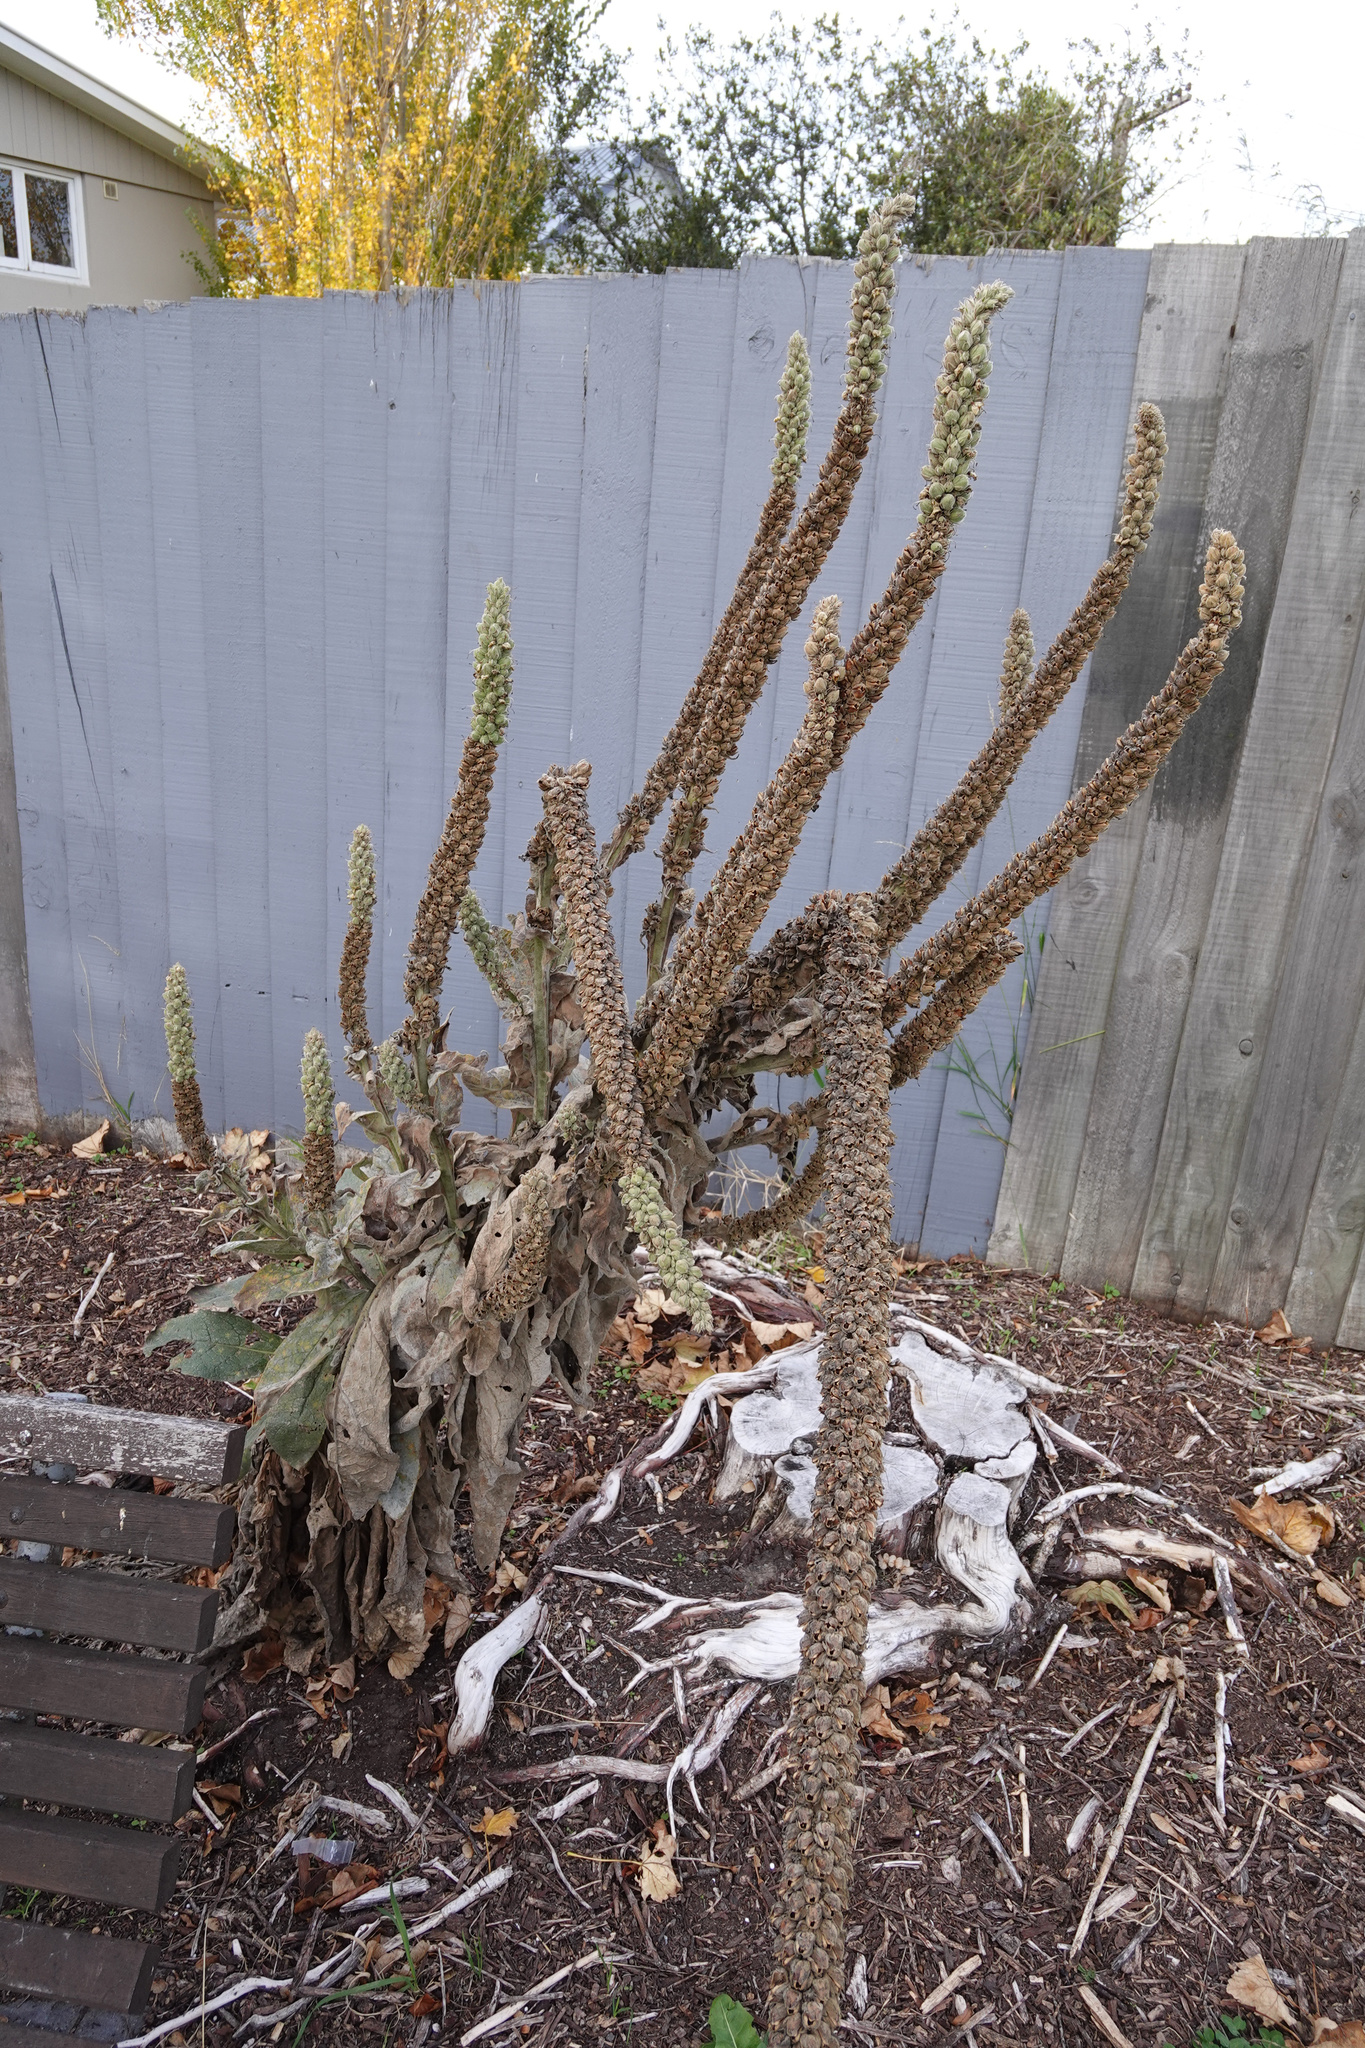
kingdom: Plantae
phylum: Tracheophyta
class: Magnoliopsida
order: Lamiales
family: Scrophulariaceae
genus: Verbascum
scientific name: Verbascum thapsus
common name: Common mullein
